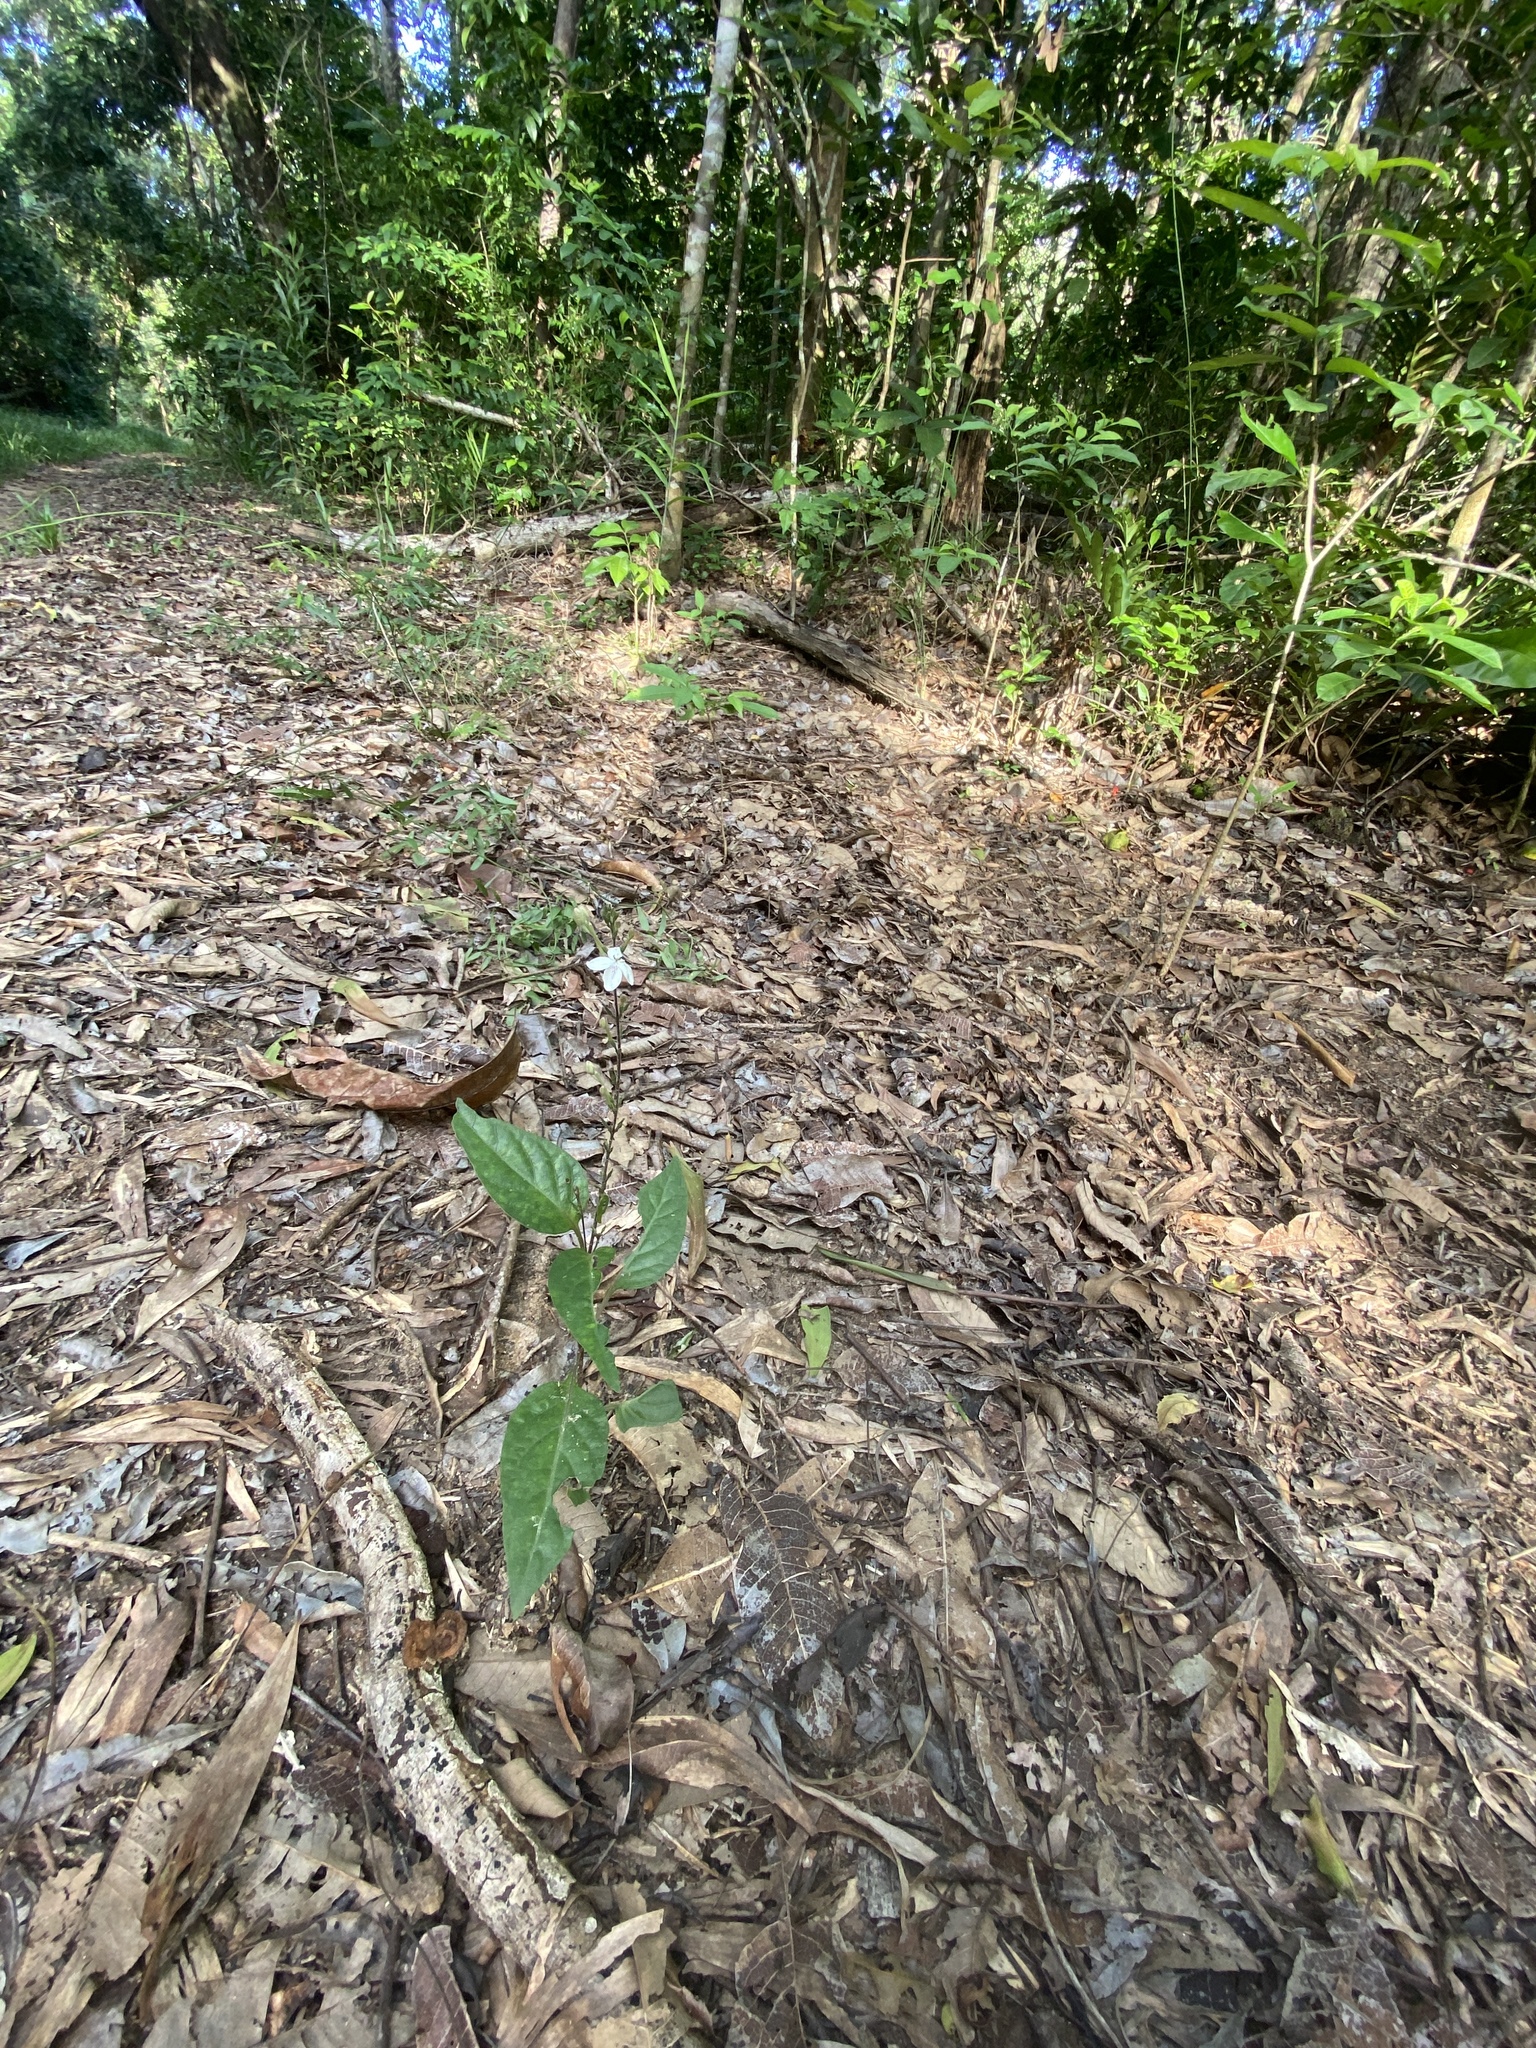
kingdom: Plantae
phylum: Tracheophyta
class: Magnoliopsida
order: Lamiales
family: Acanthaceae
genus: Pseuderanthemum
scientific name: Pseuderanthemum variabile
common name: Night and afternoon
